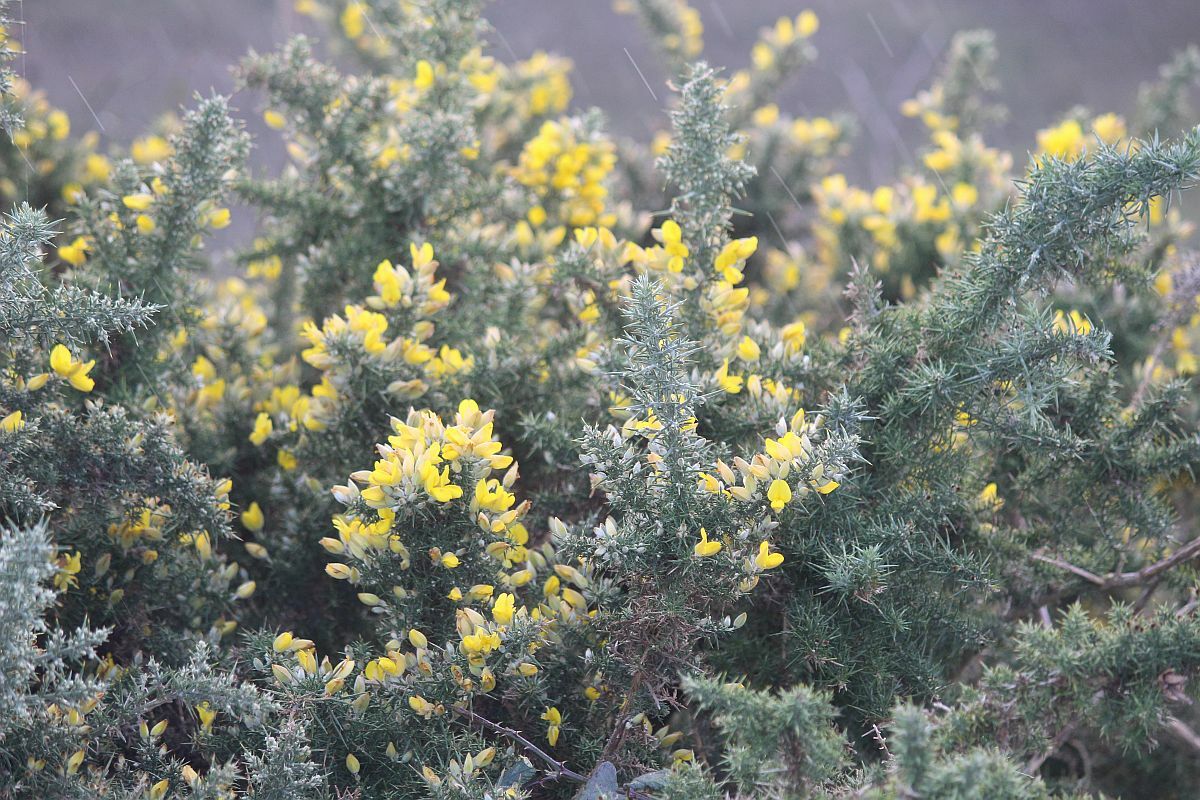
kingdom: Plantae
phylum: Tracheophyta
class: Magnoliopsida
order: Fabales
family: Fabaceae
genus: Ulex
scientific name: Ulex europaeus
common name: Common gorse
